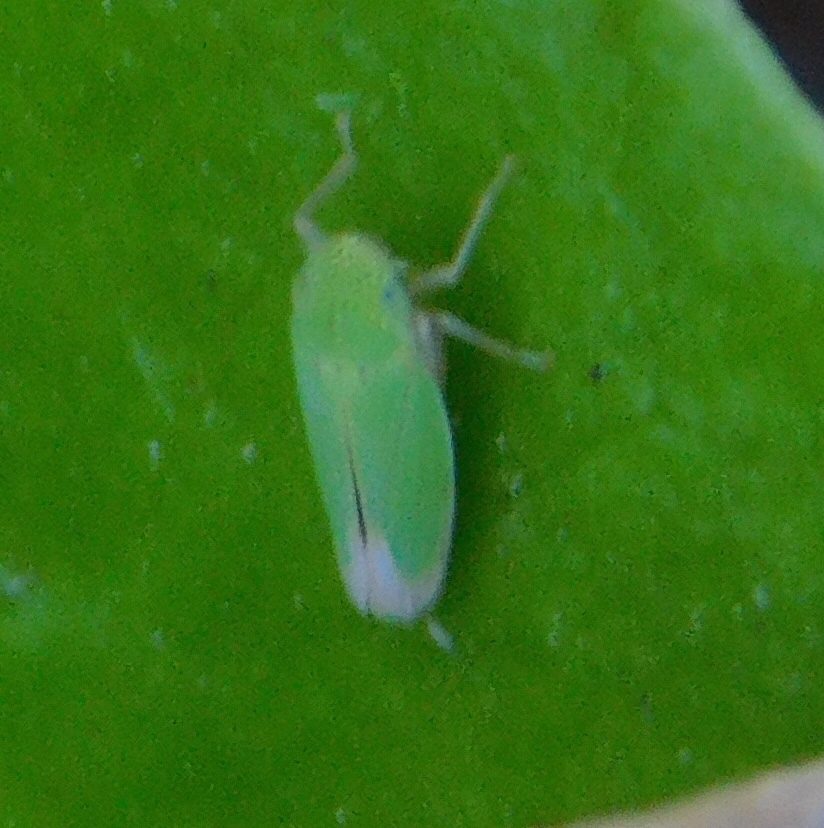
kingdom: Animalia
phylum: Arthropoda
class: Insecta
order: Hemiptera
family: Cicadellidae
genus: Hortensia
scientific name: Hortensia similis
